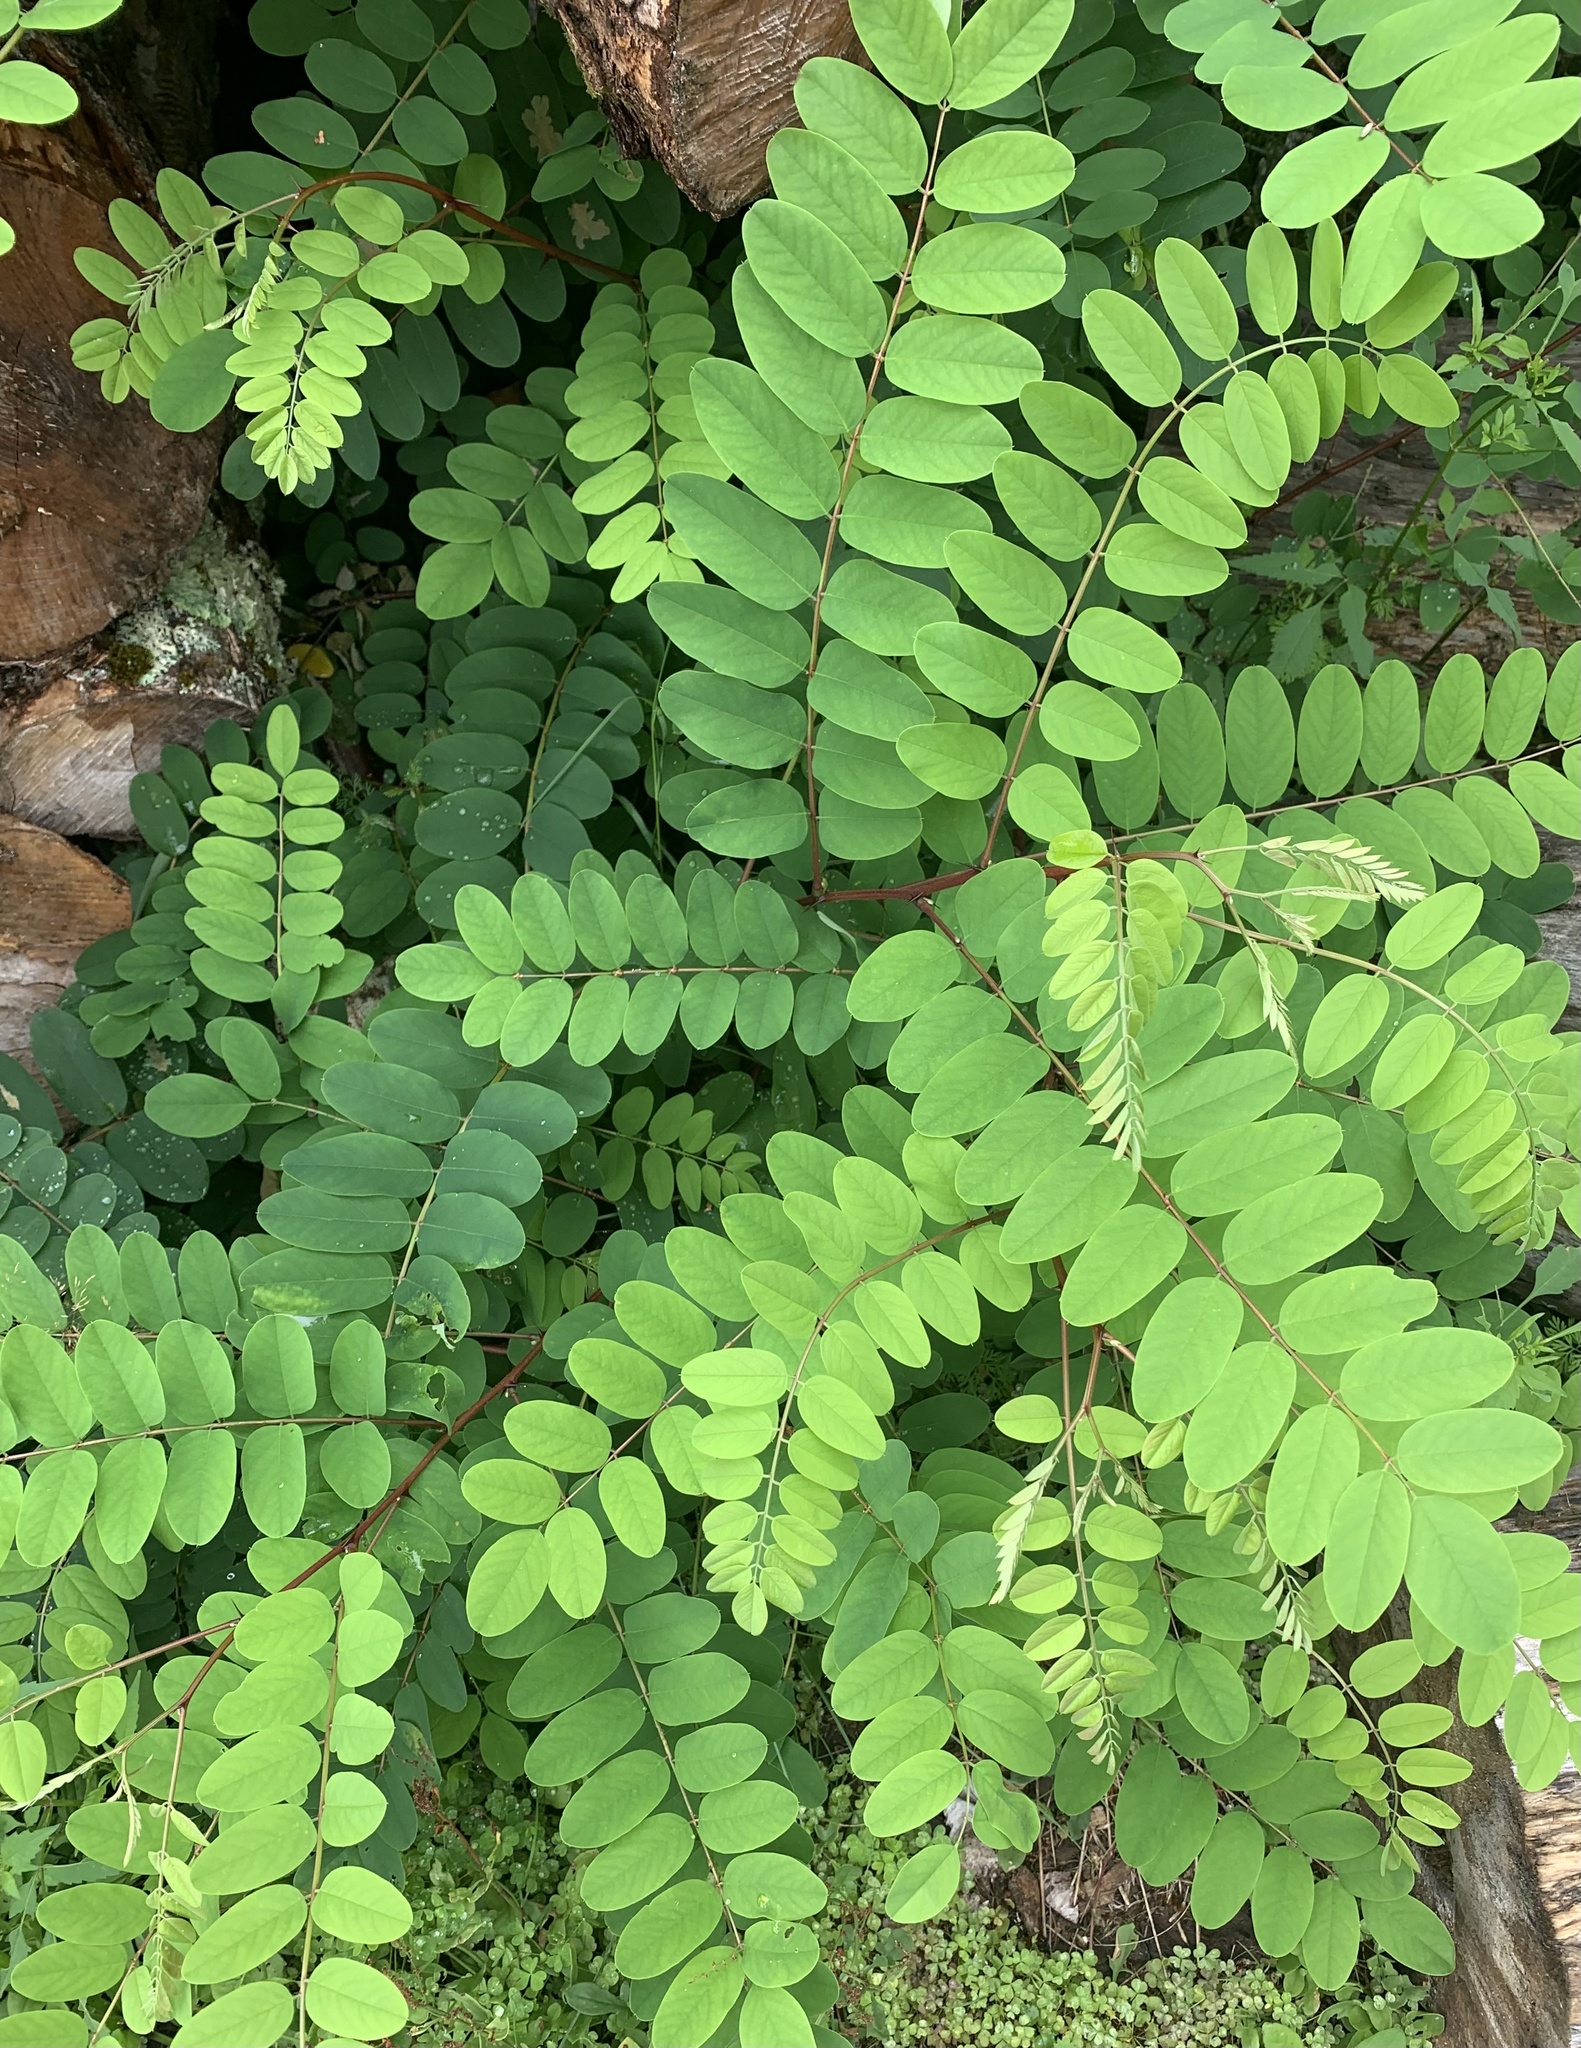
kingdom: Plantae
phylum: Tracheophyta
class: Magnoliopsida
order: Fabales
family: Fabaceae
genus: Robinia
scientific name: Robinia pseudoacacia
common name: Black locust
